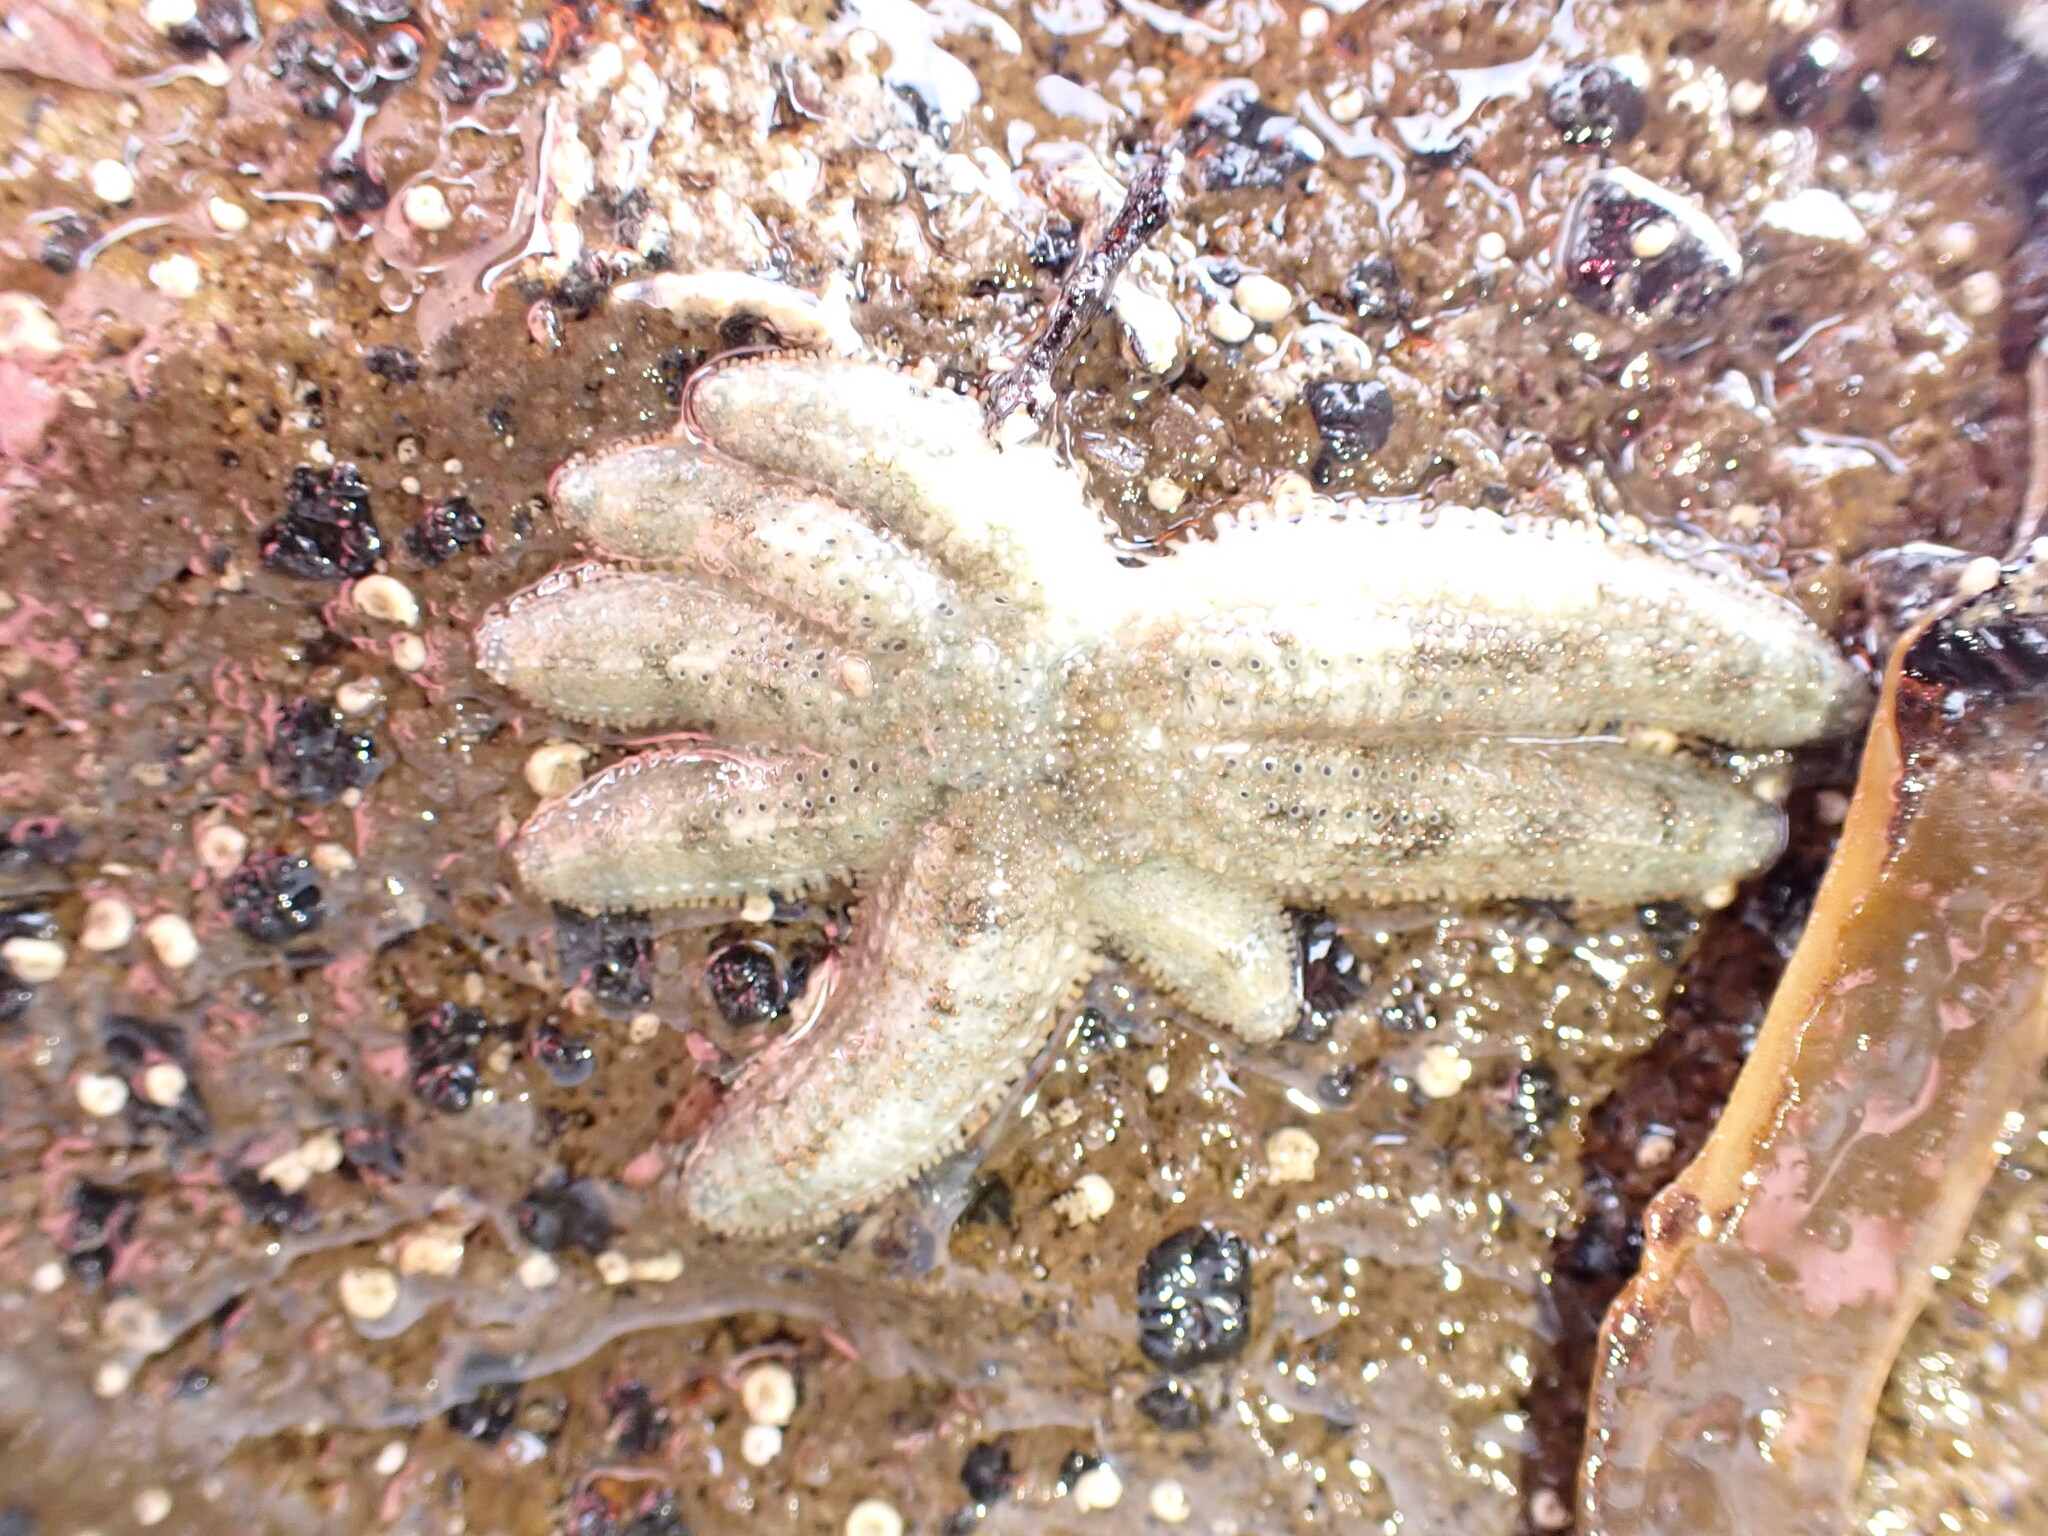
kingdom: Animalia
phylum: Echinodermata
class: Asteroidea
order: Forcipulatida
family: Stichasteridae
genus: Allostichaster
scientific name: Allostichaster polyplax
